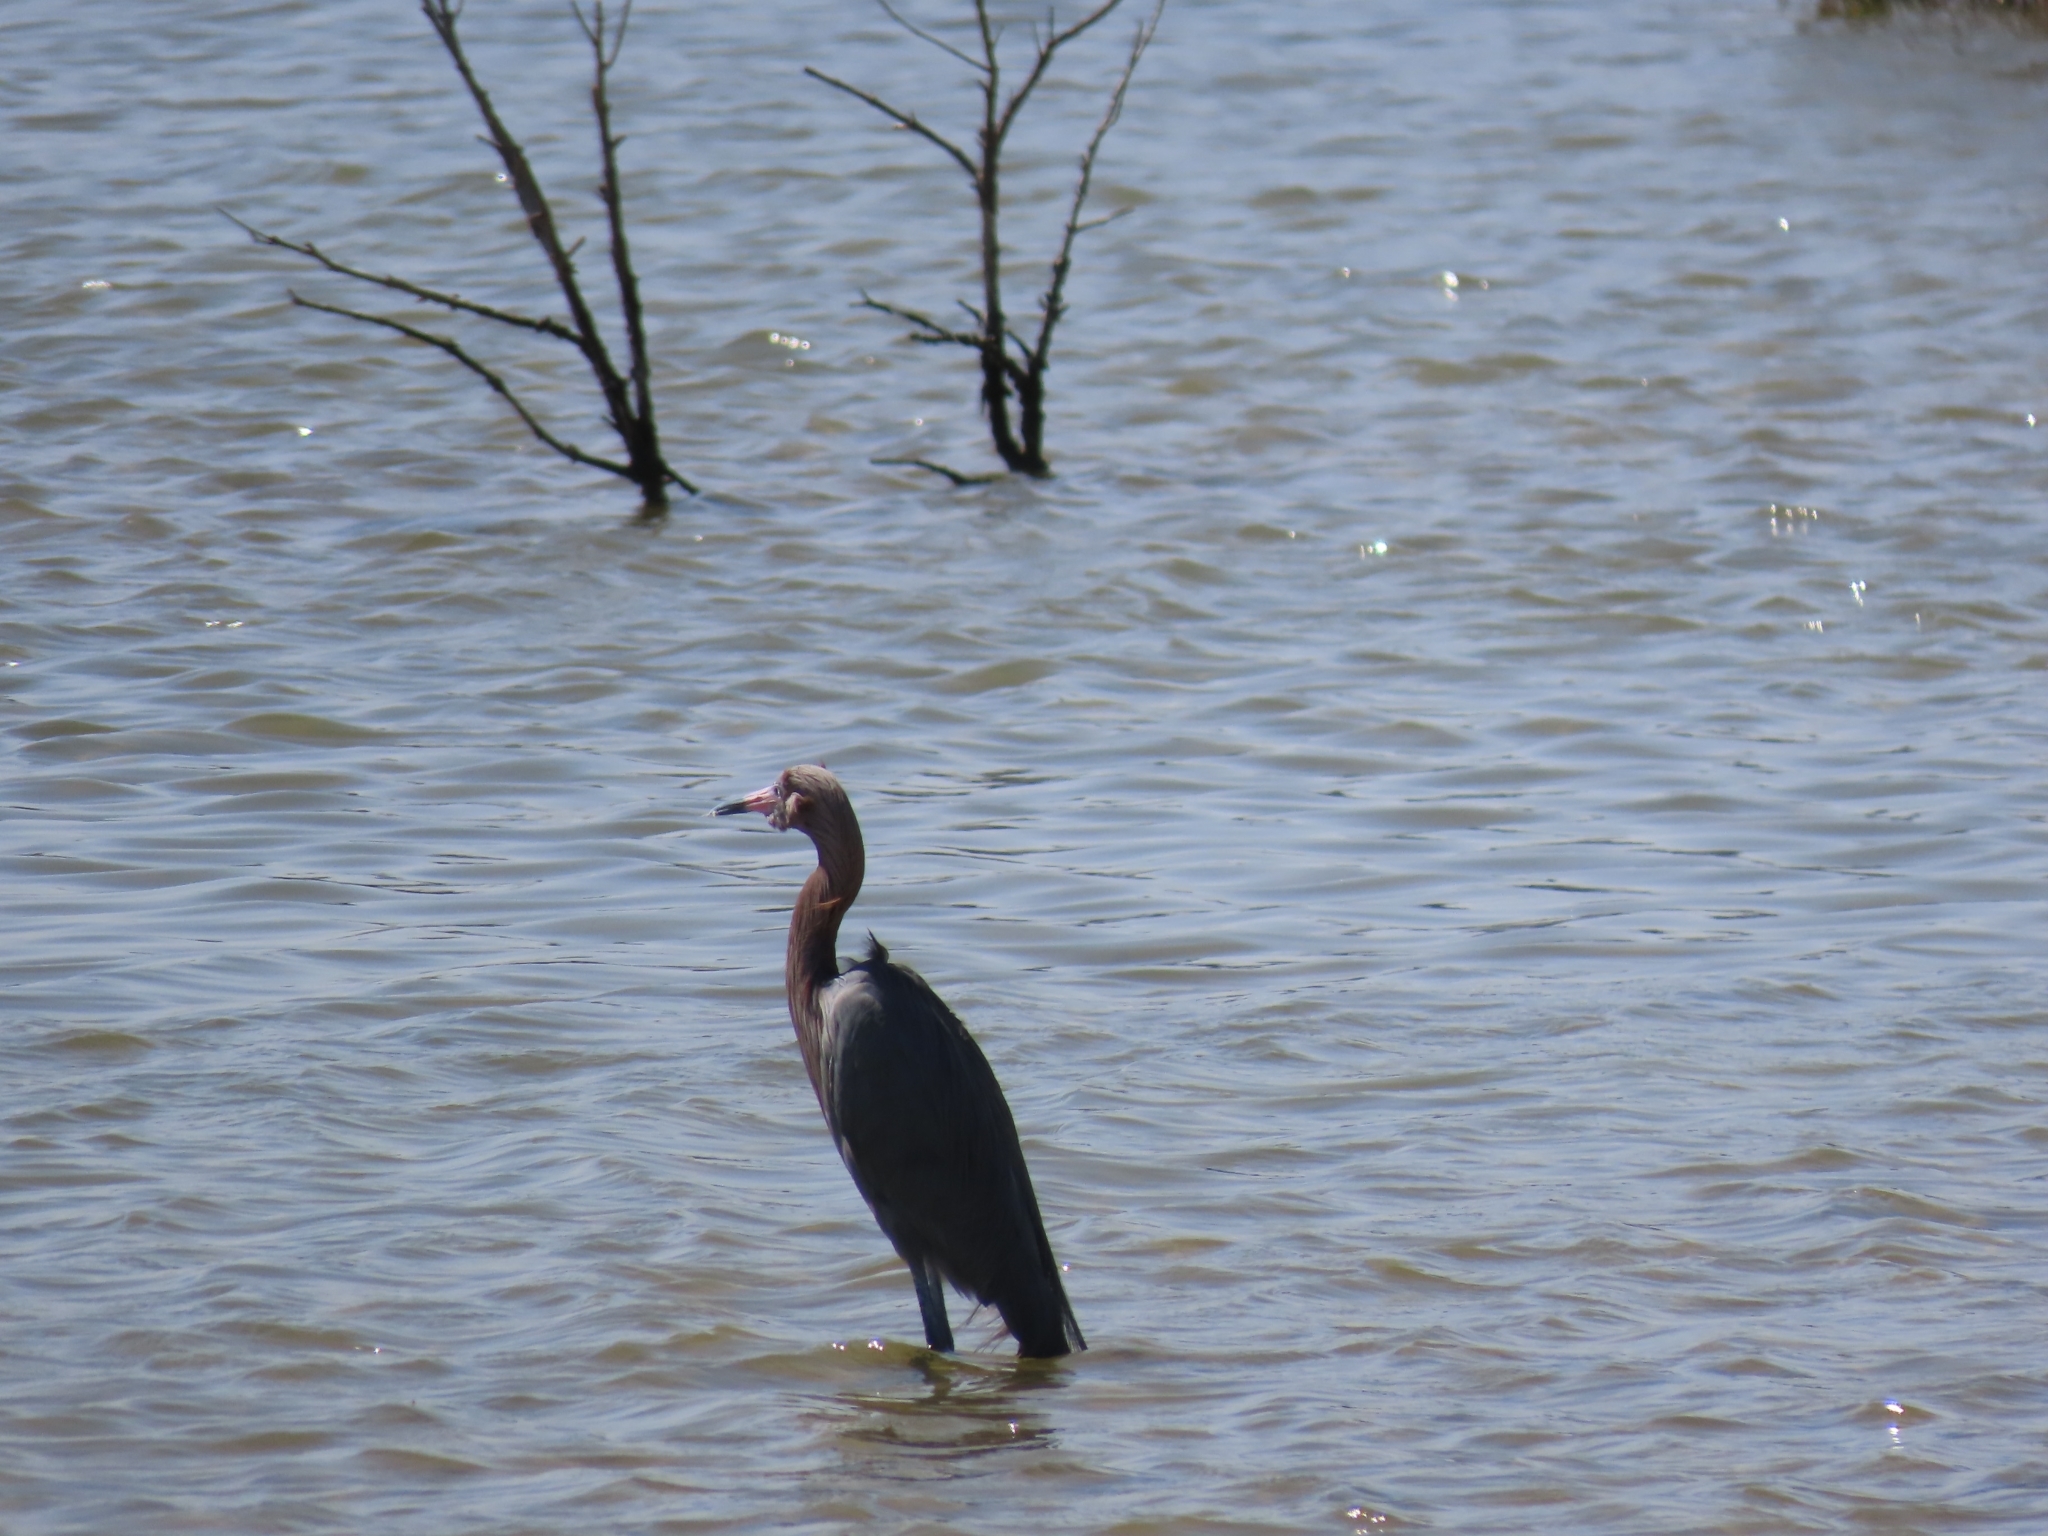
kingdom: Animalia
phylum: Chordata
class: Aves
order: Pelecaniformes
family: Ardeidae
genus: Egretta
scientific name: Egretta rufescens
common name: Reddish egret
